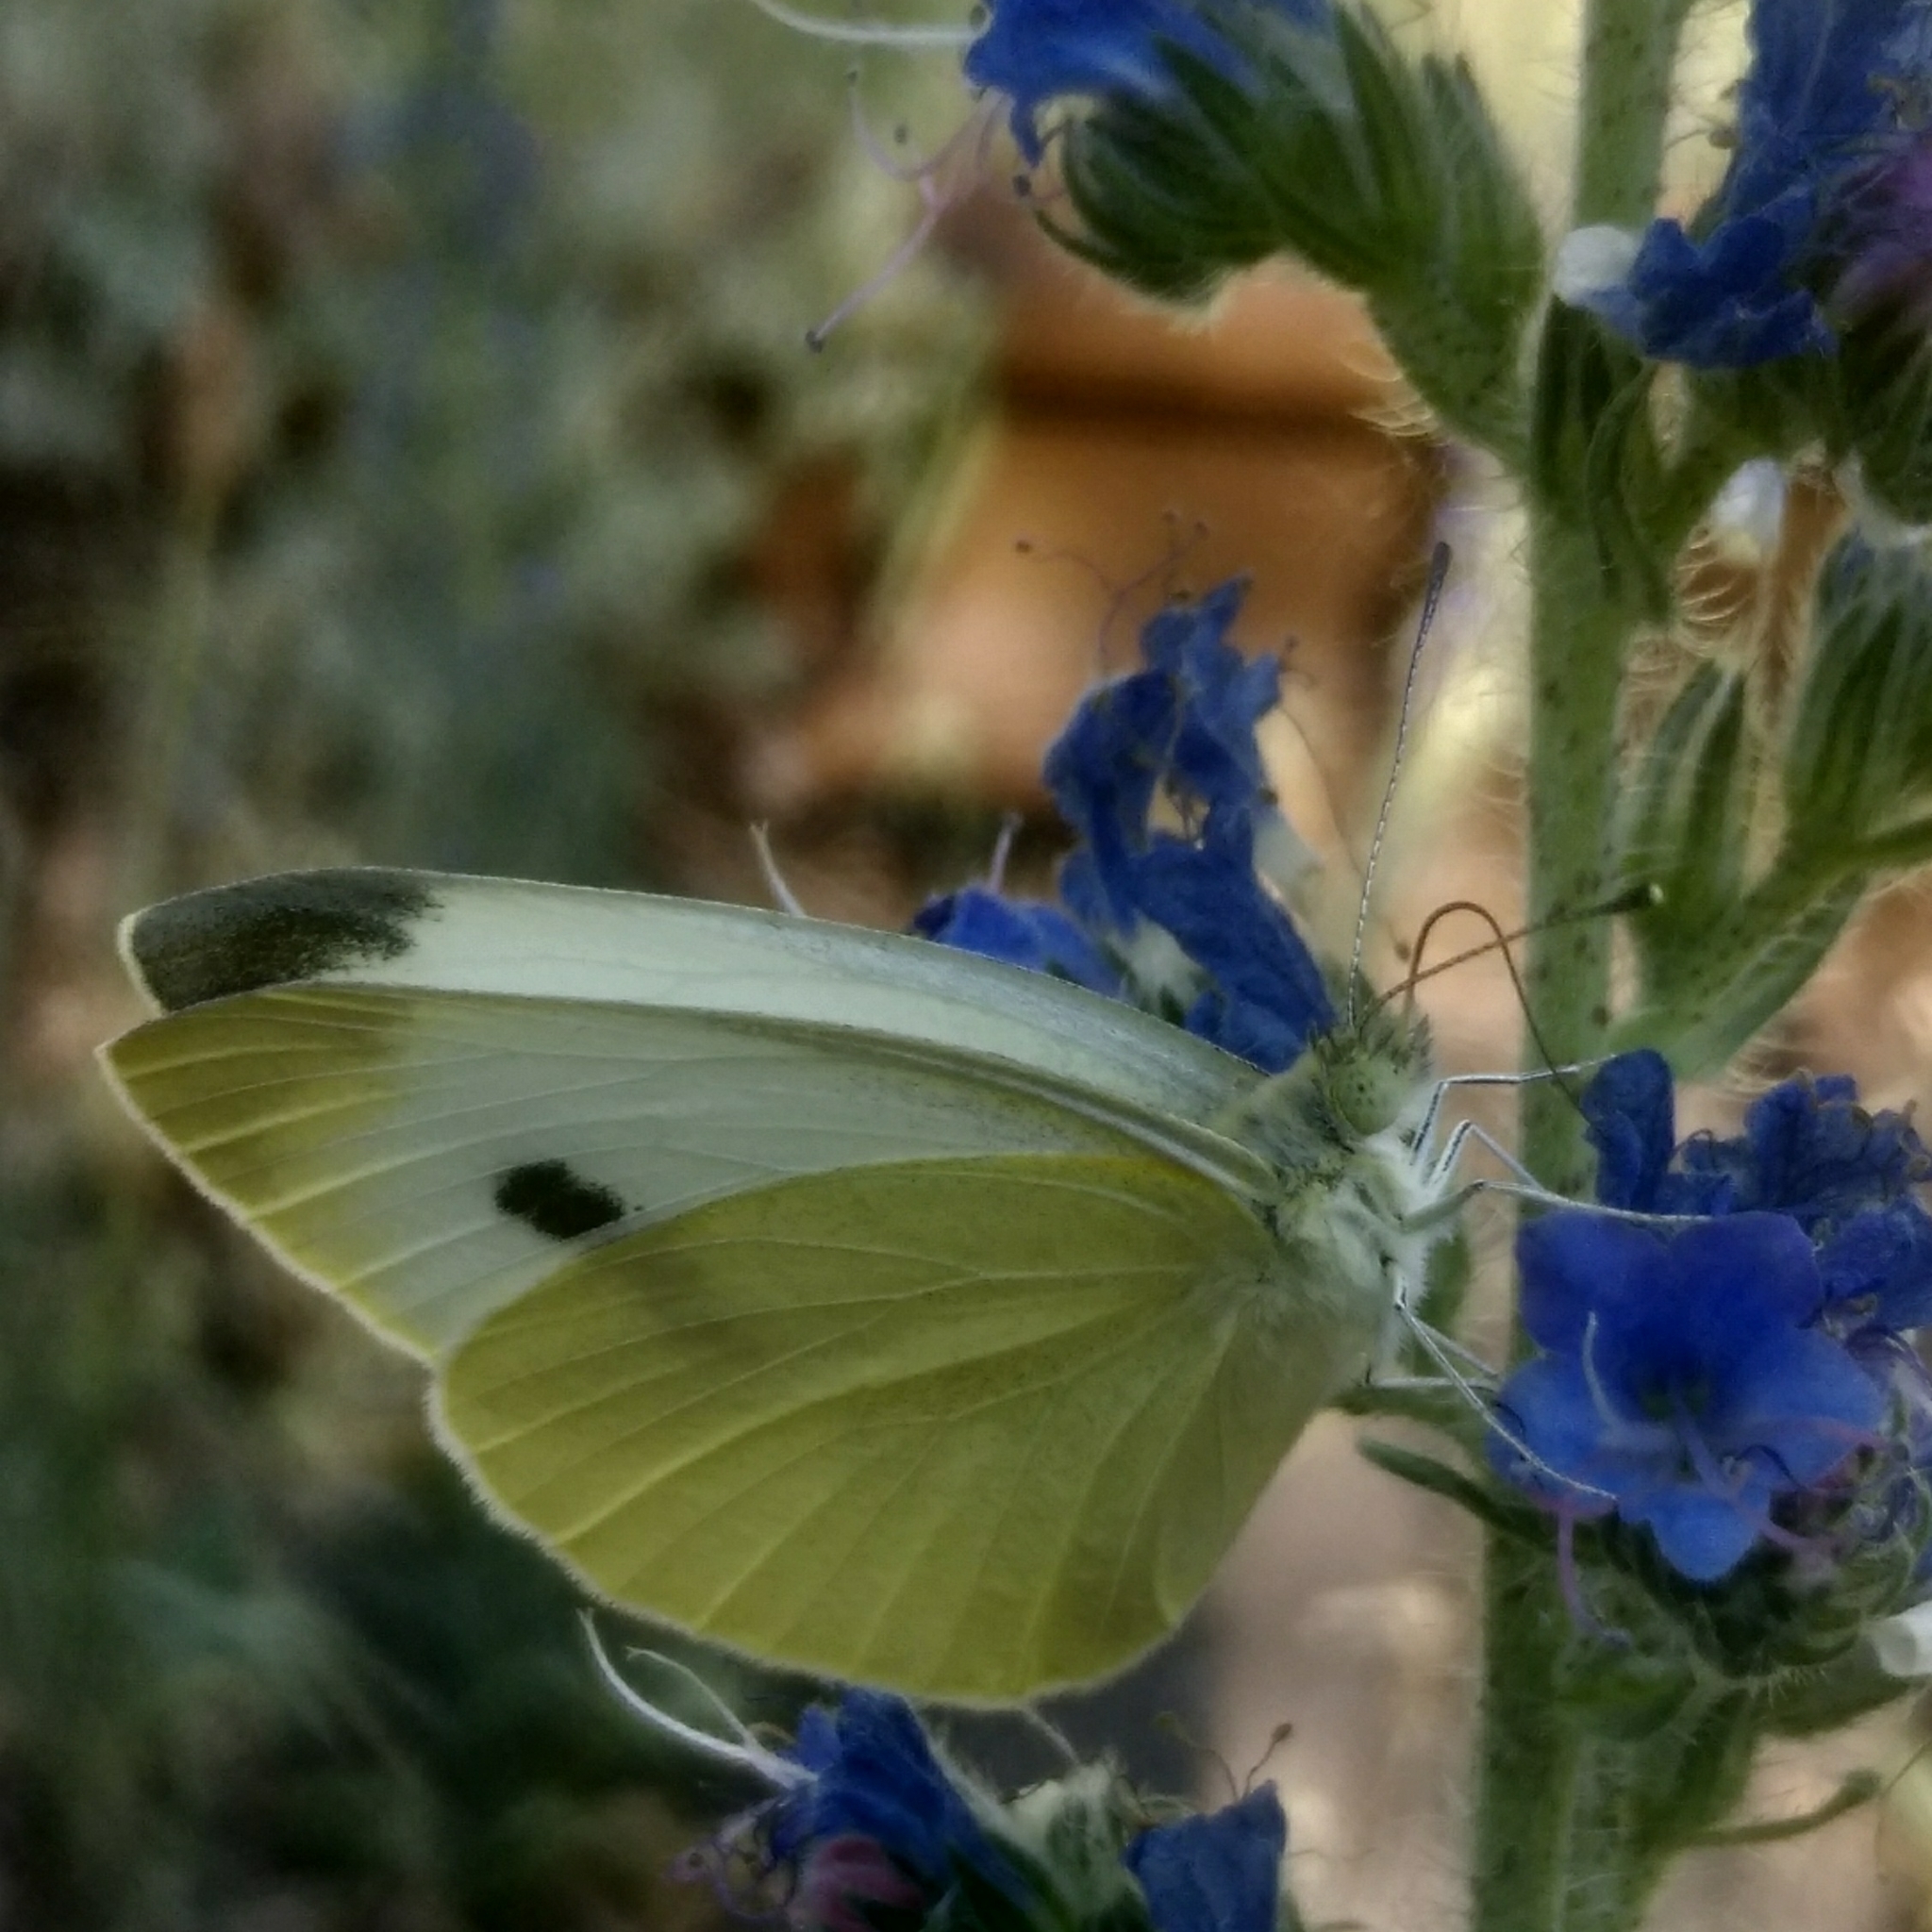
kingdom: Animalia
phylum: Arthropoda
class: Insecta
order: Lepidoptera
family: Pieridae
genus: Pieris
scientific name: Pieris rapae
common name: Small white
